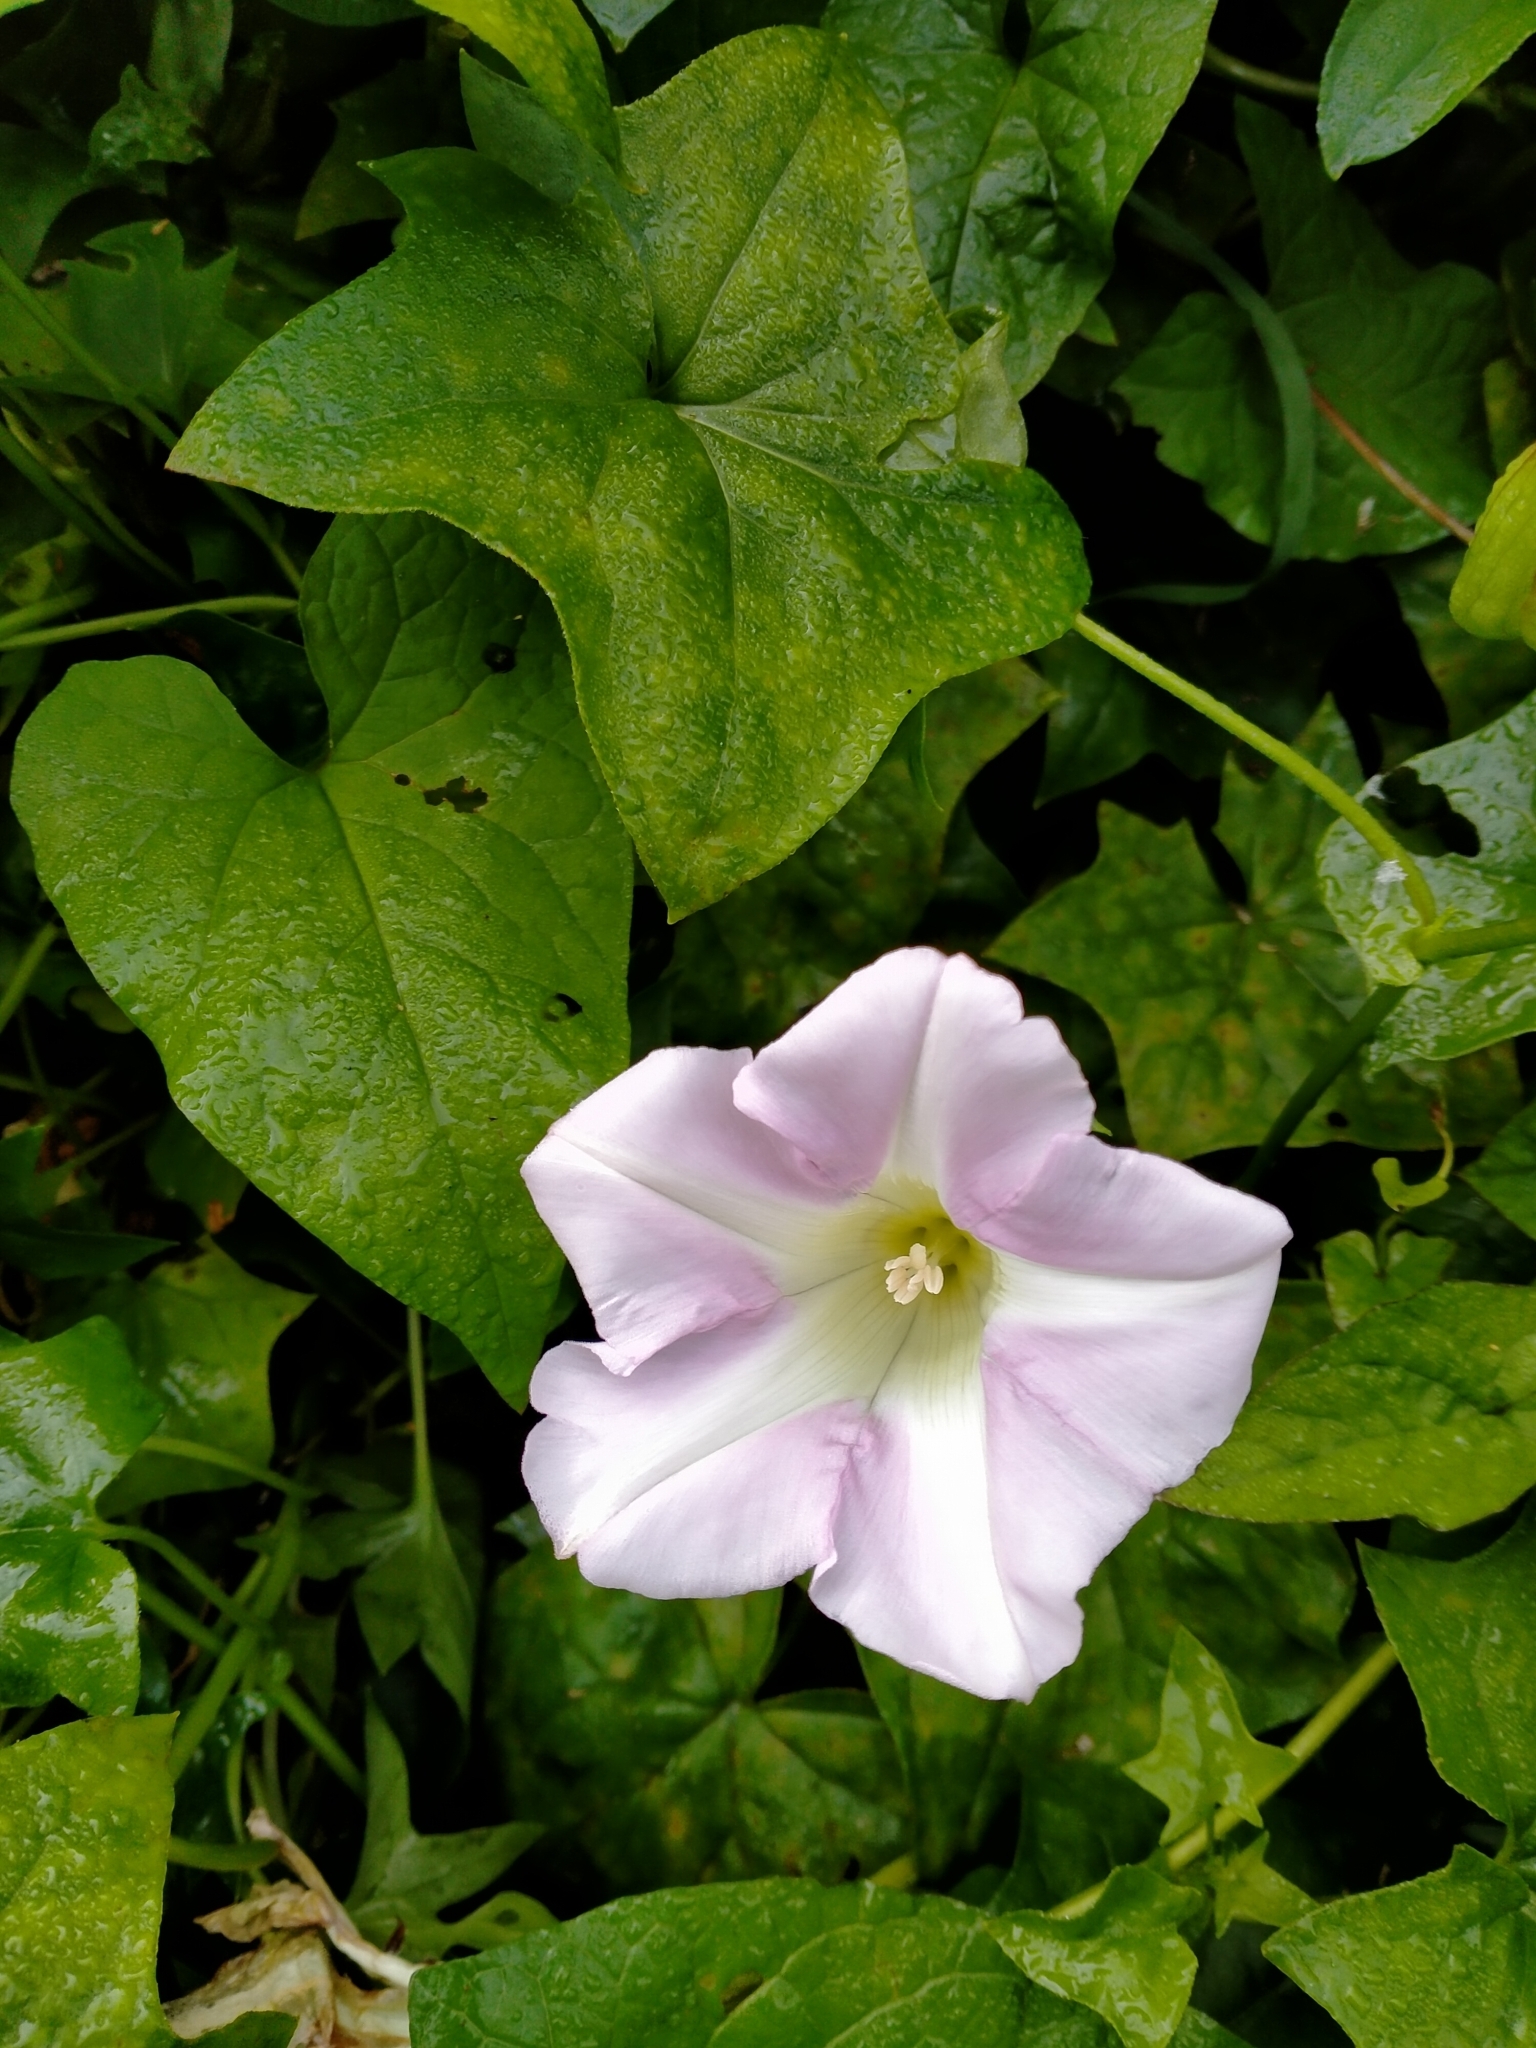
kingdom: Plantae
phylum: Tracheophyta
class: Magnoliopsida
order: Solanales
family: Convolvulaceae
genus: Calystegia
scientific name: Calystegia
